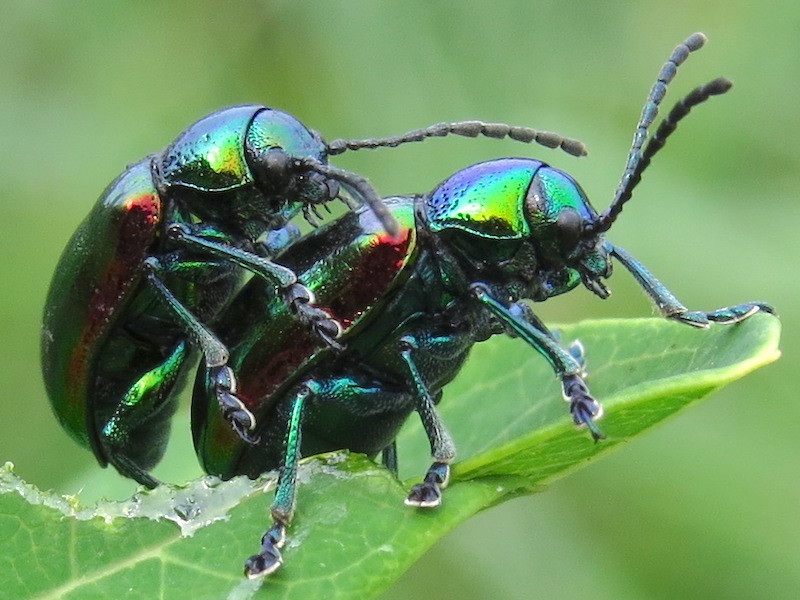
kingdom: Animalia
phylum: Arthropoda
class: Insecta
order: Coleoptera
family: Chrysomelidae
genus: Chrysochus
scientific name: Chrysochus auratus
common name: Dogbane leaf beetle
